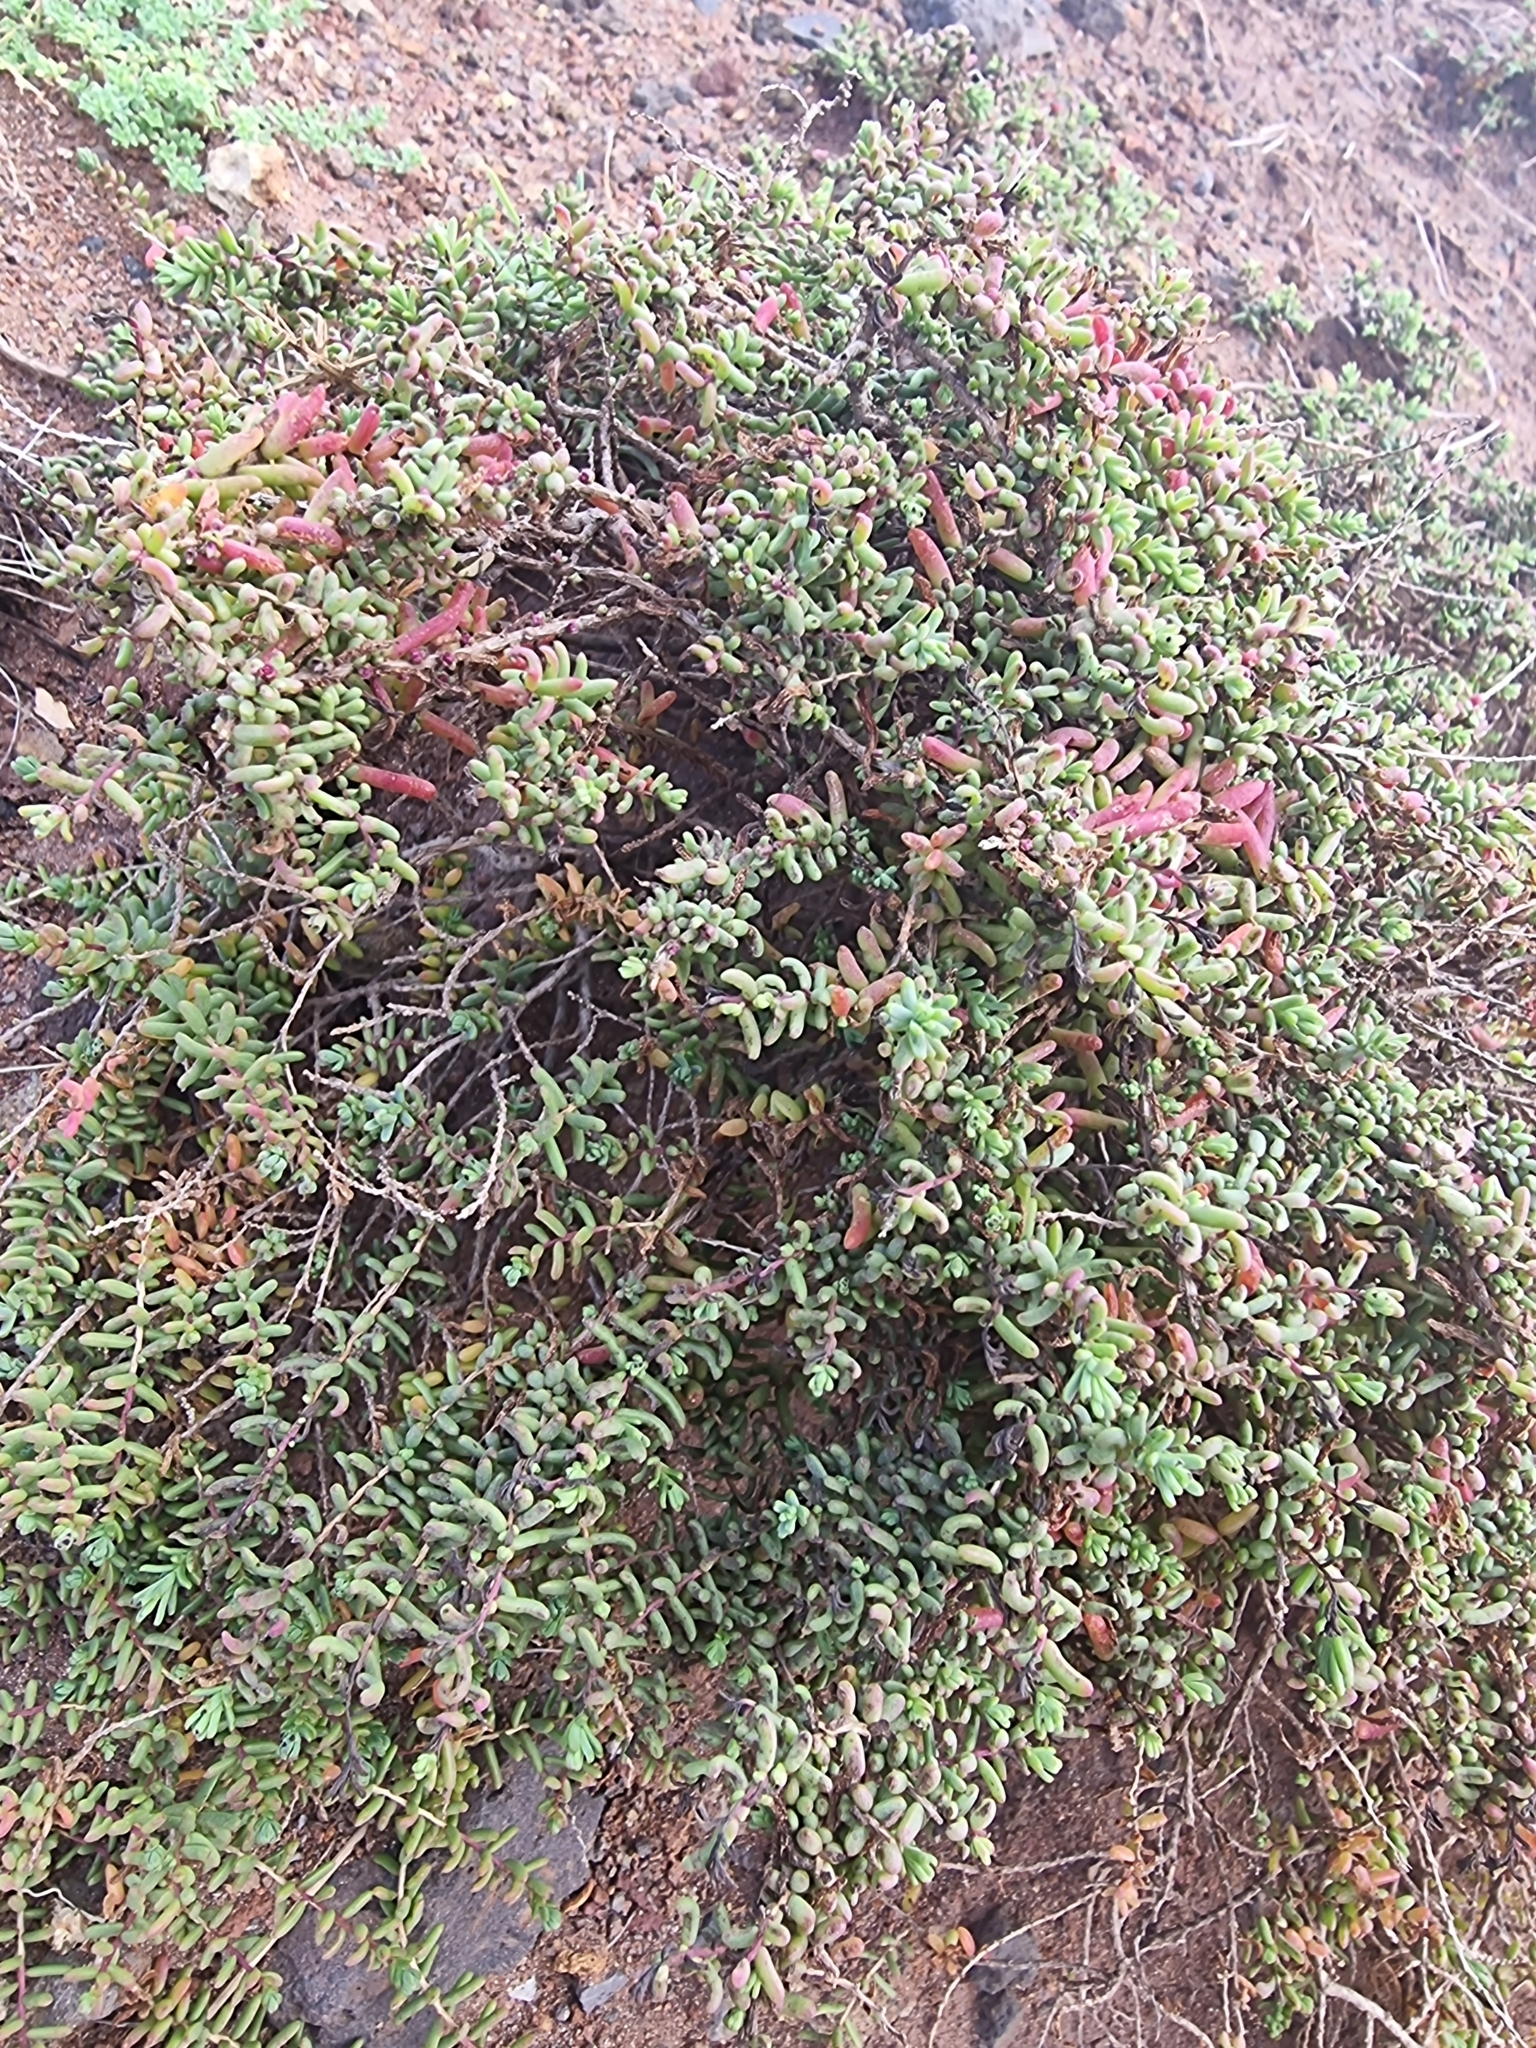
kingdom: Plantae
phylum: Tracheophyta
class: Magnoliopsida
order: Caryophyllales
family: Amaranthaceae
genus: Suaeda
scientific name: Suaeda vera
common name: Shrubby sea-blite
